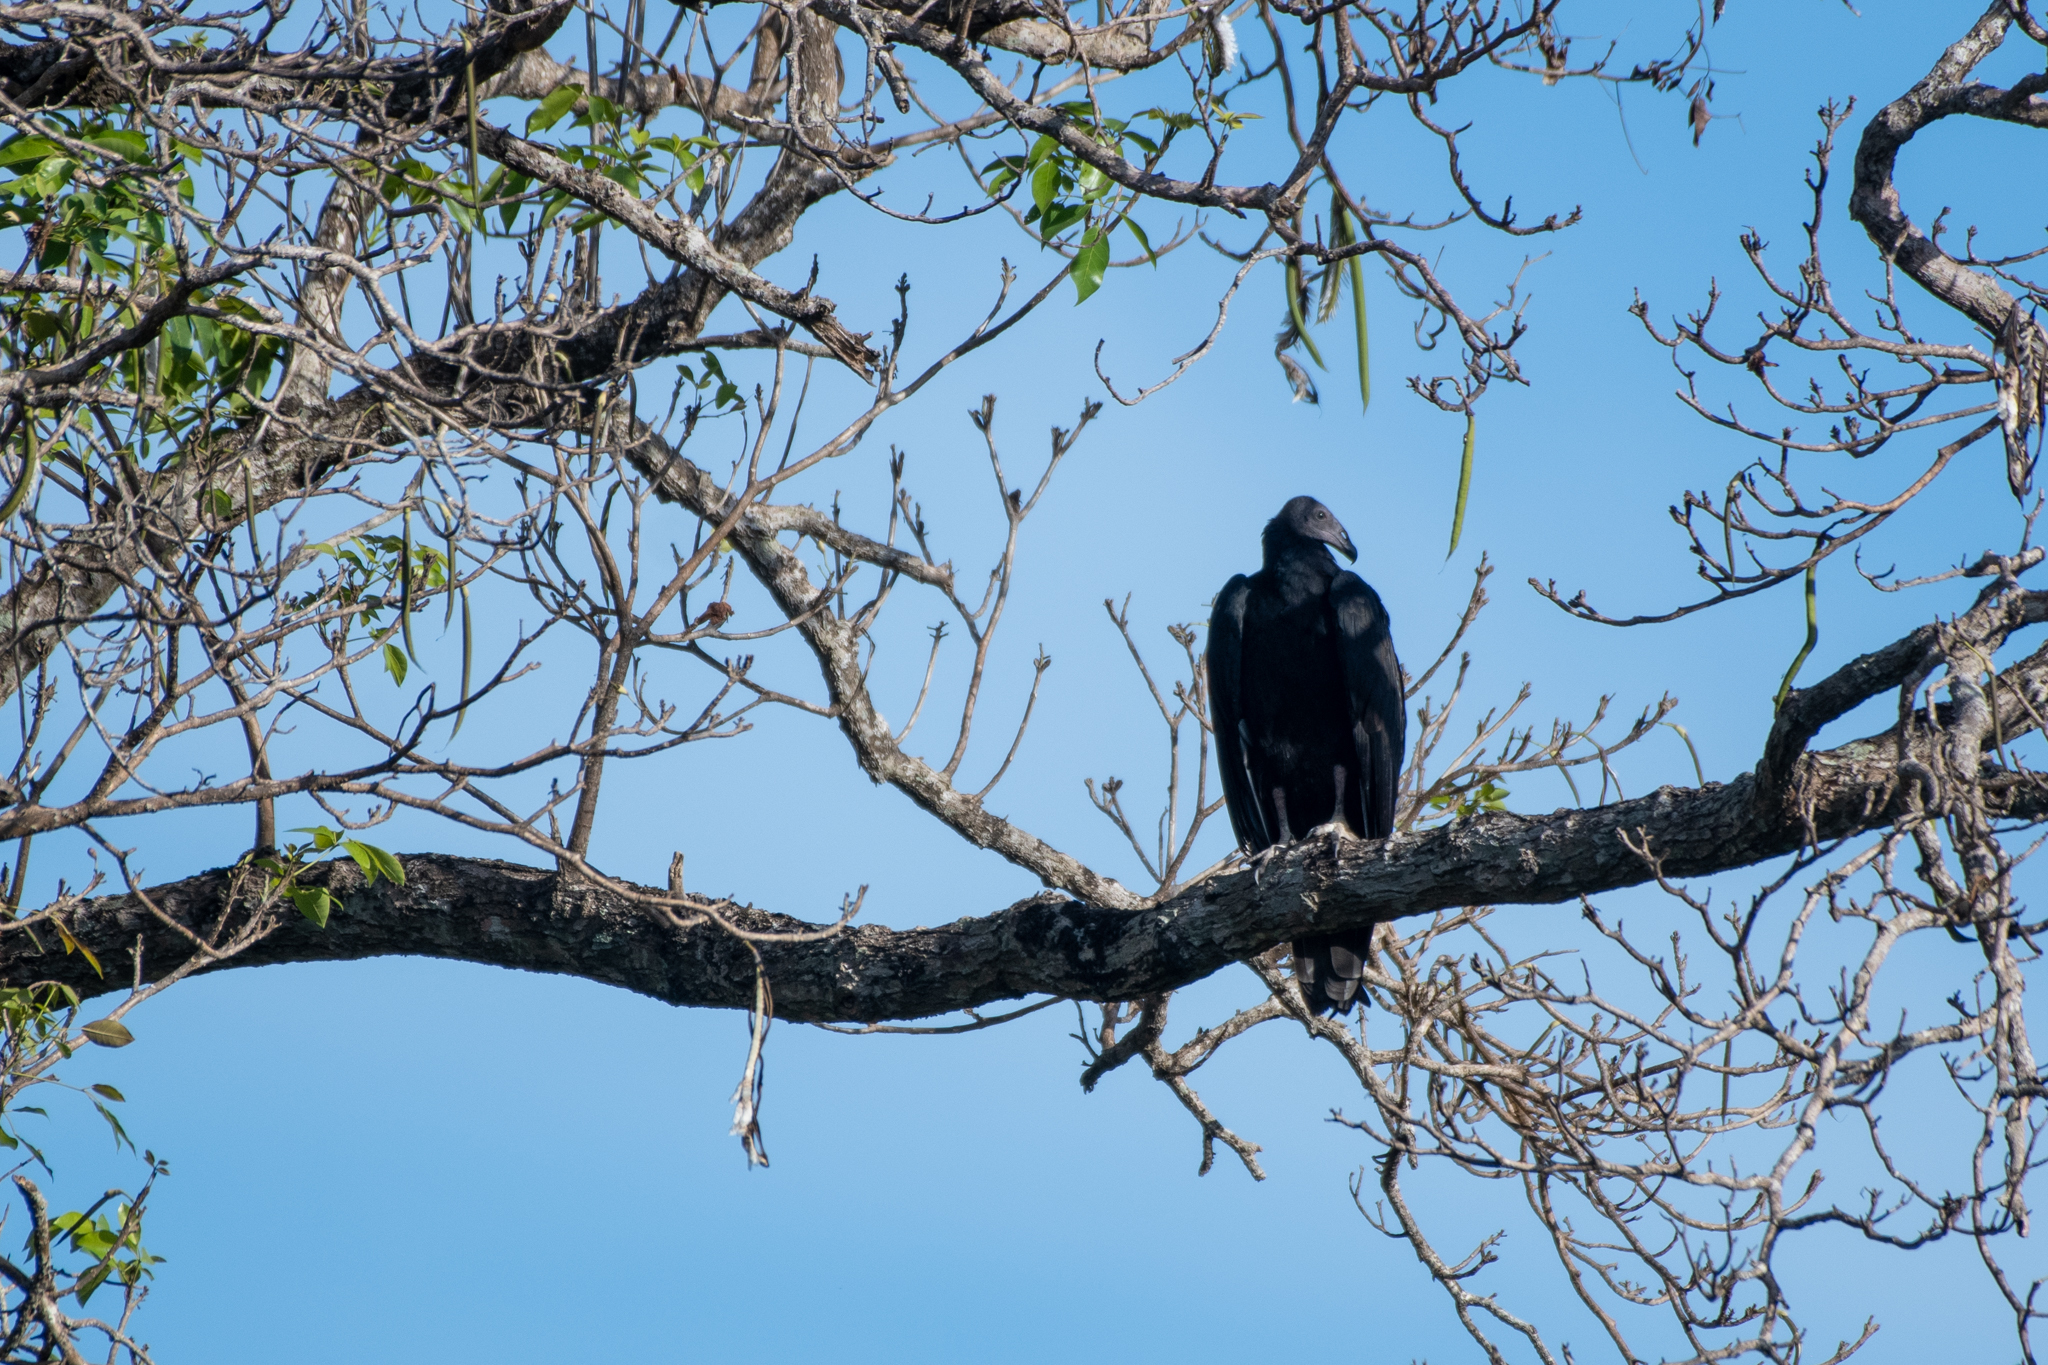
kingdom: Animalia
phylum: Chordata
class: Aves
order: Accipitriformes
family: Cathartidae
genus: Cathartes
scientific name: Cathartes aura
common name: Turkey vulture
